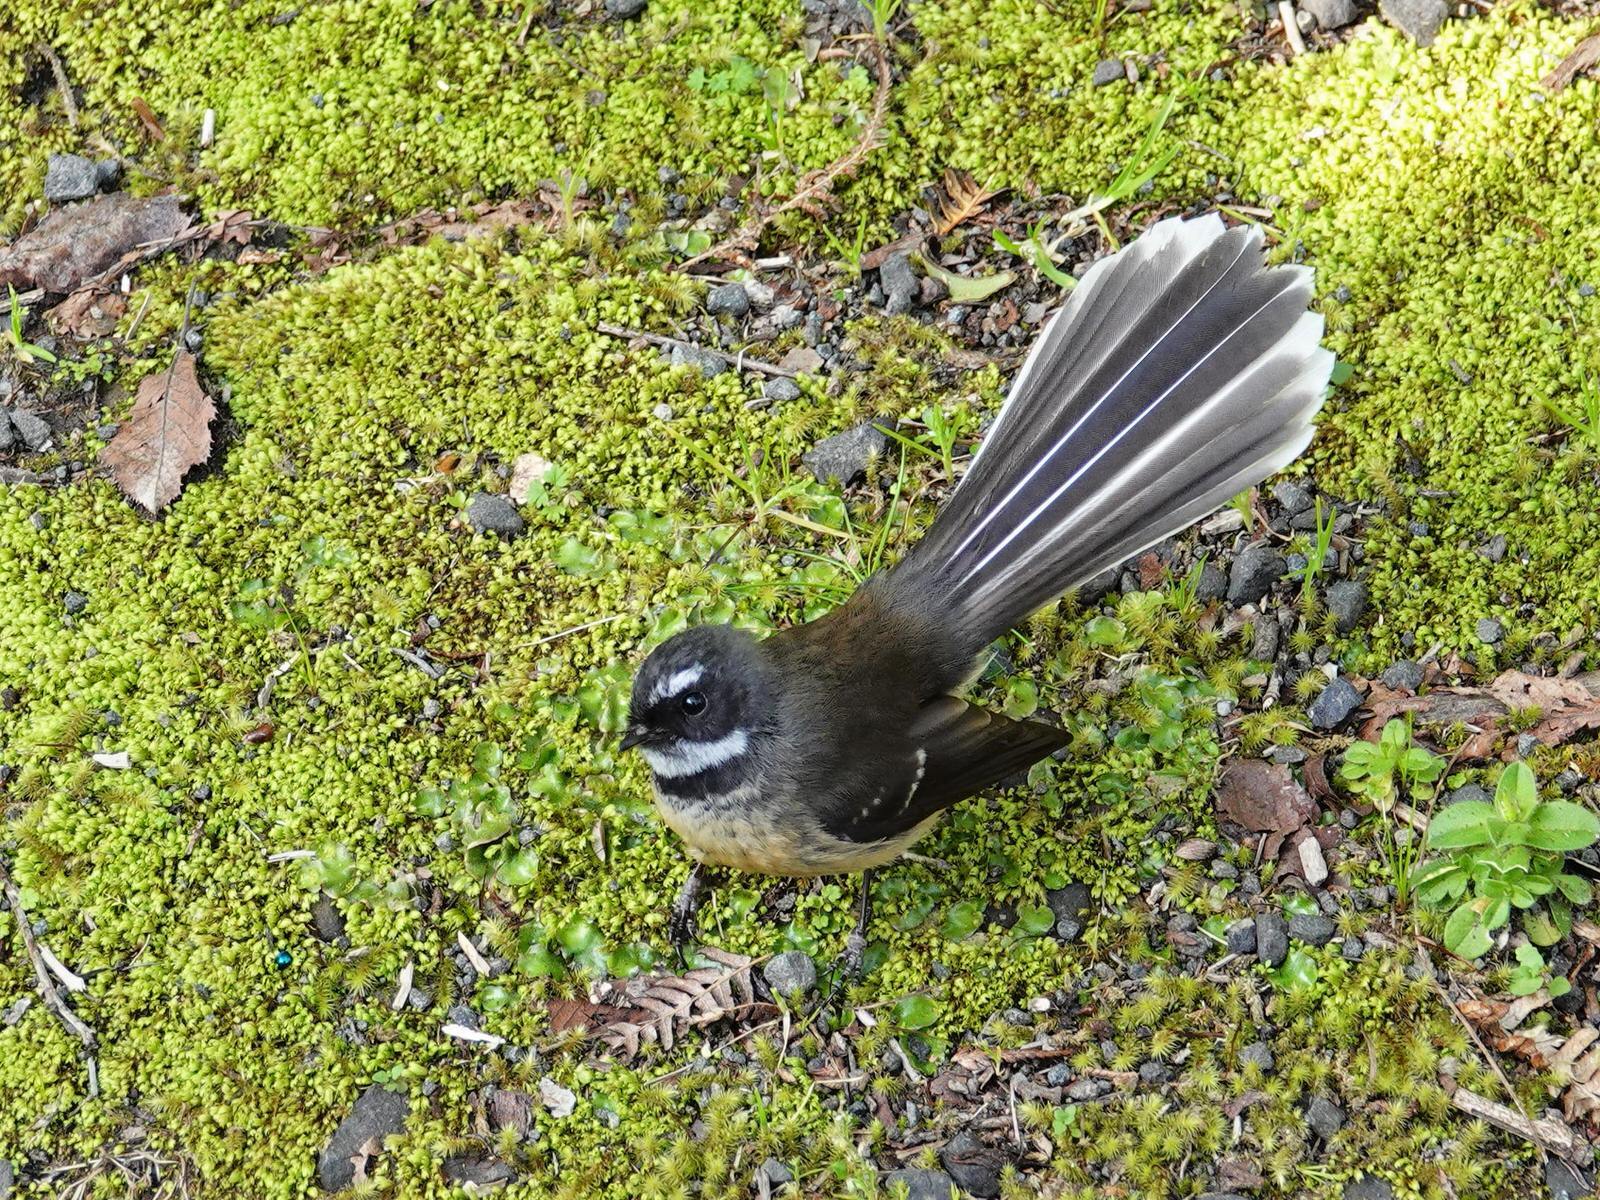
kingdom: Animalia
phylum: Chordata
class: Aves
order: Passeriformes
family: Rhipiduridae
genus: Rhipidura
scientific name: Rhipidura fuliginosa
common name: New zealand fantail
